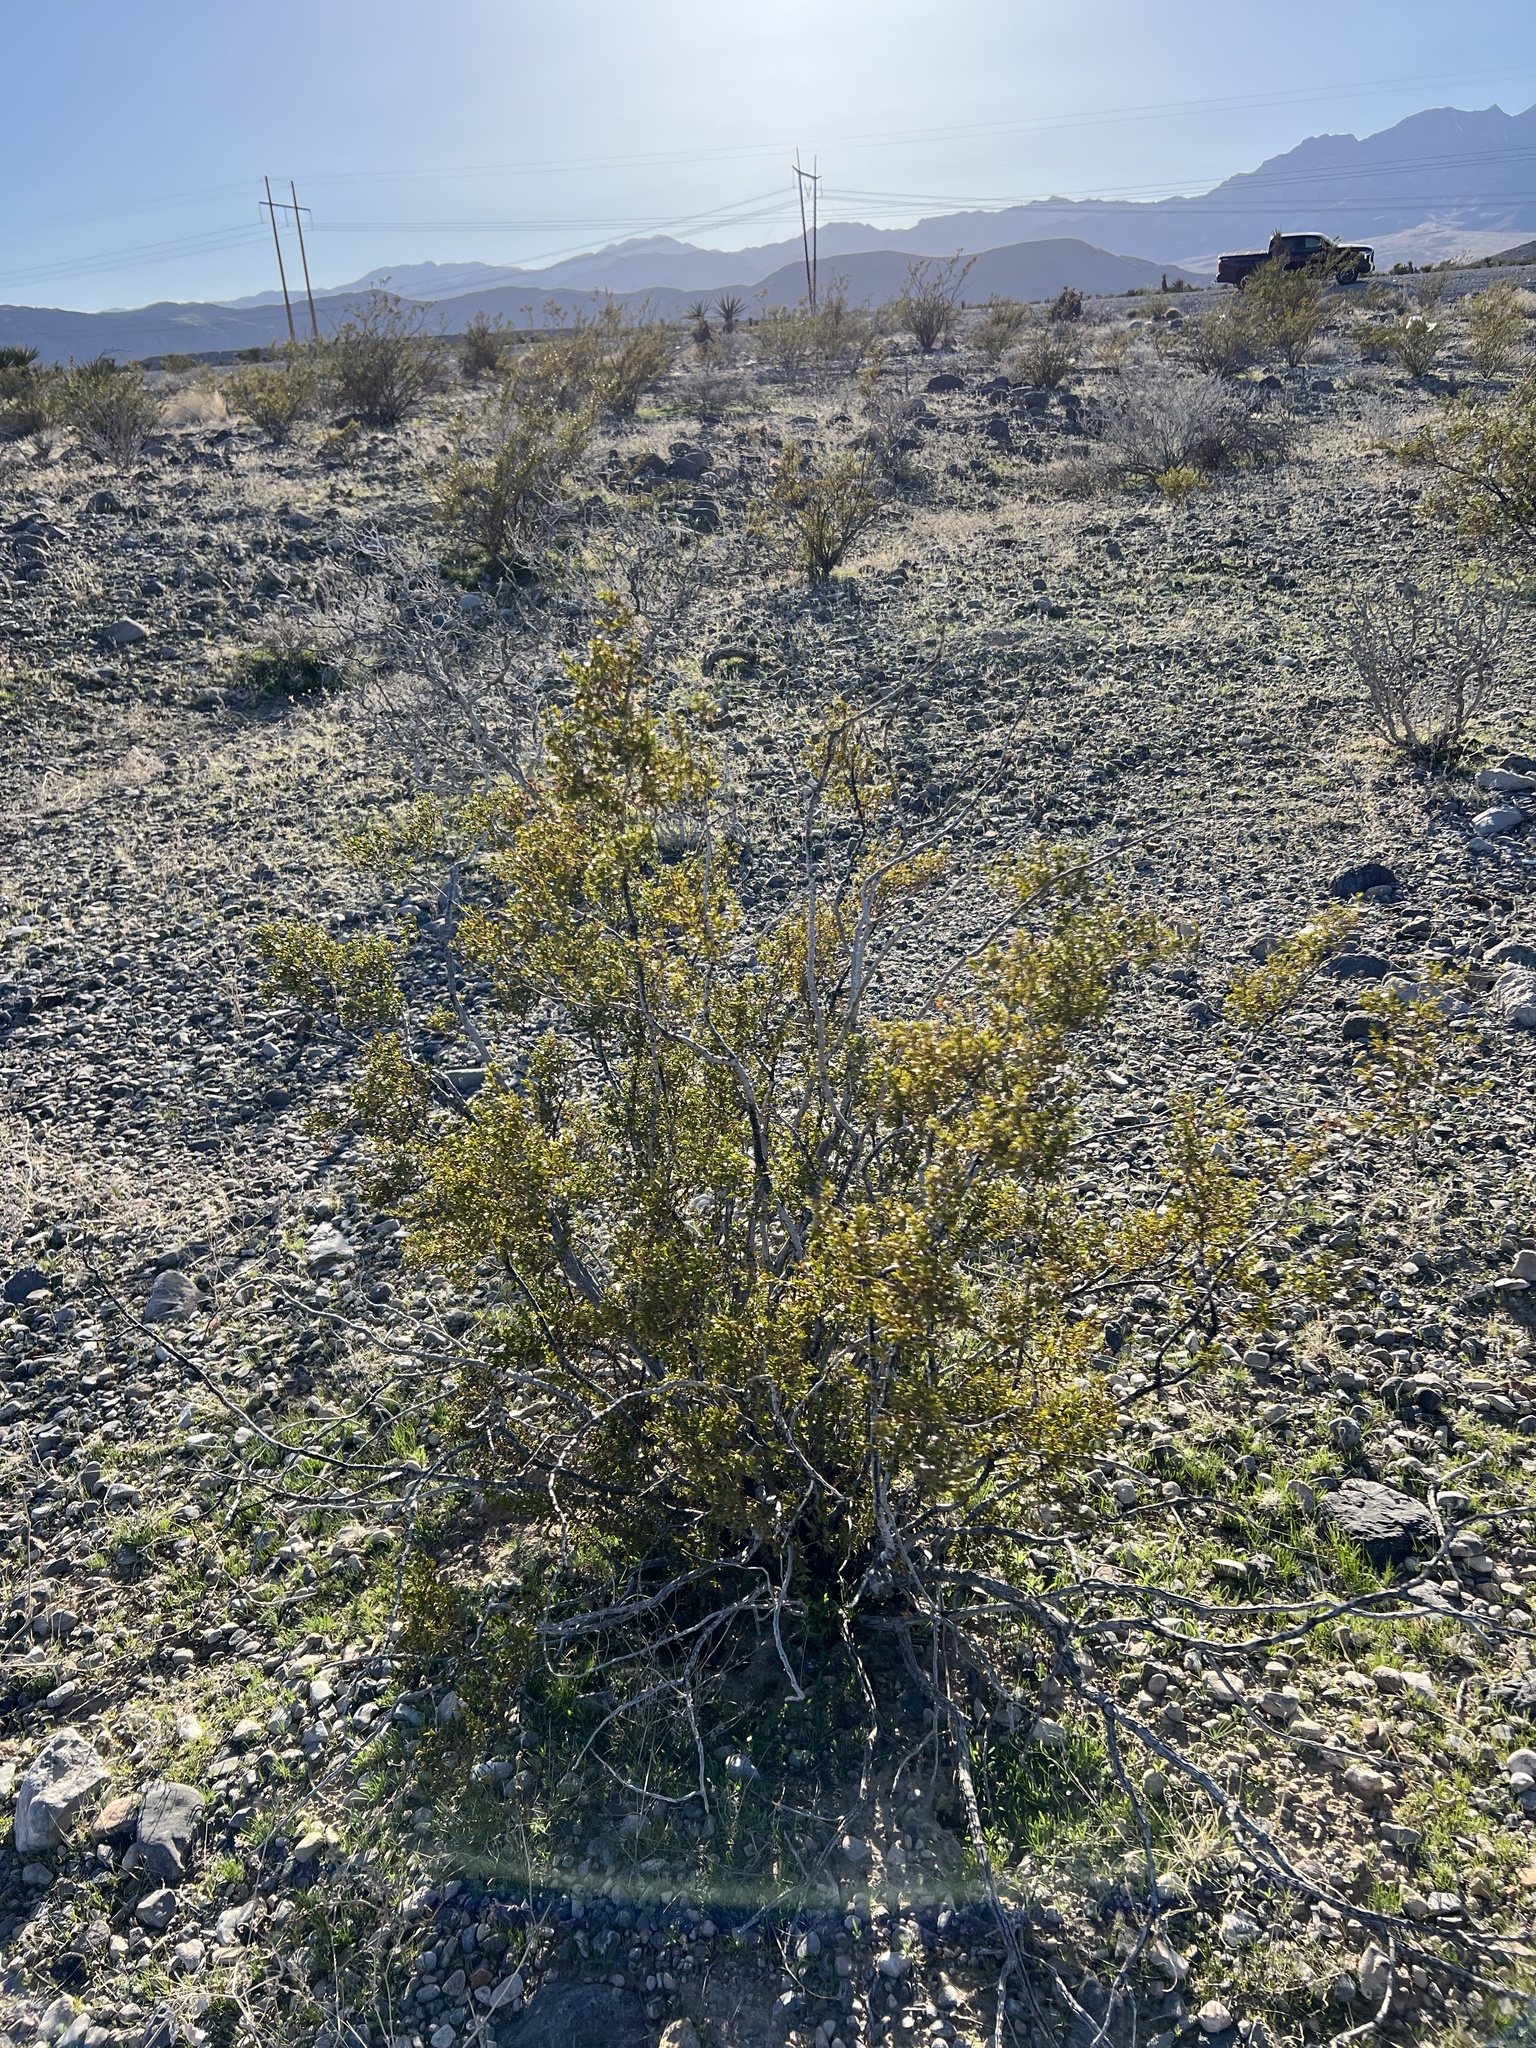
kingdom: Plantae
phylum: Tracheophyta
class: Magnoliopsida
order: Zygophyllales
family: Zygophyllaceae
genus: Larrea
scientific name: Larrea tridentata
